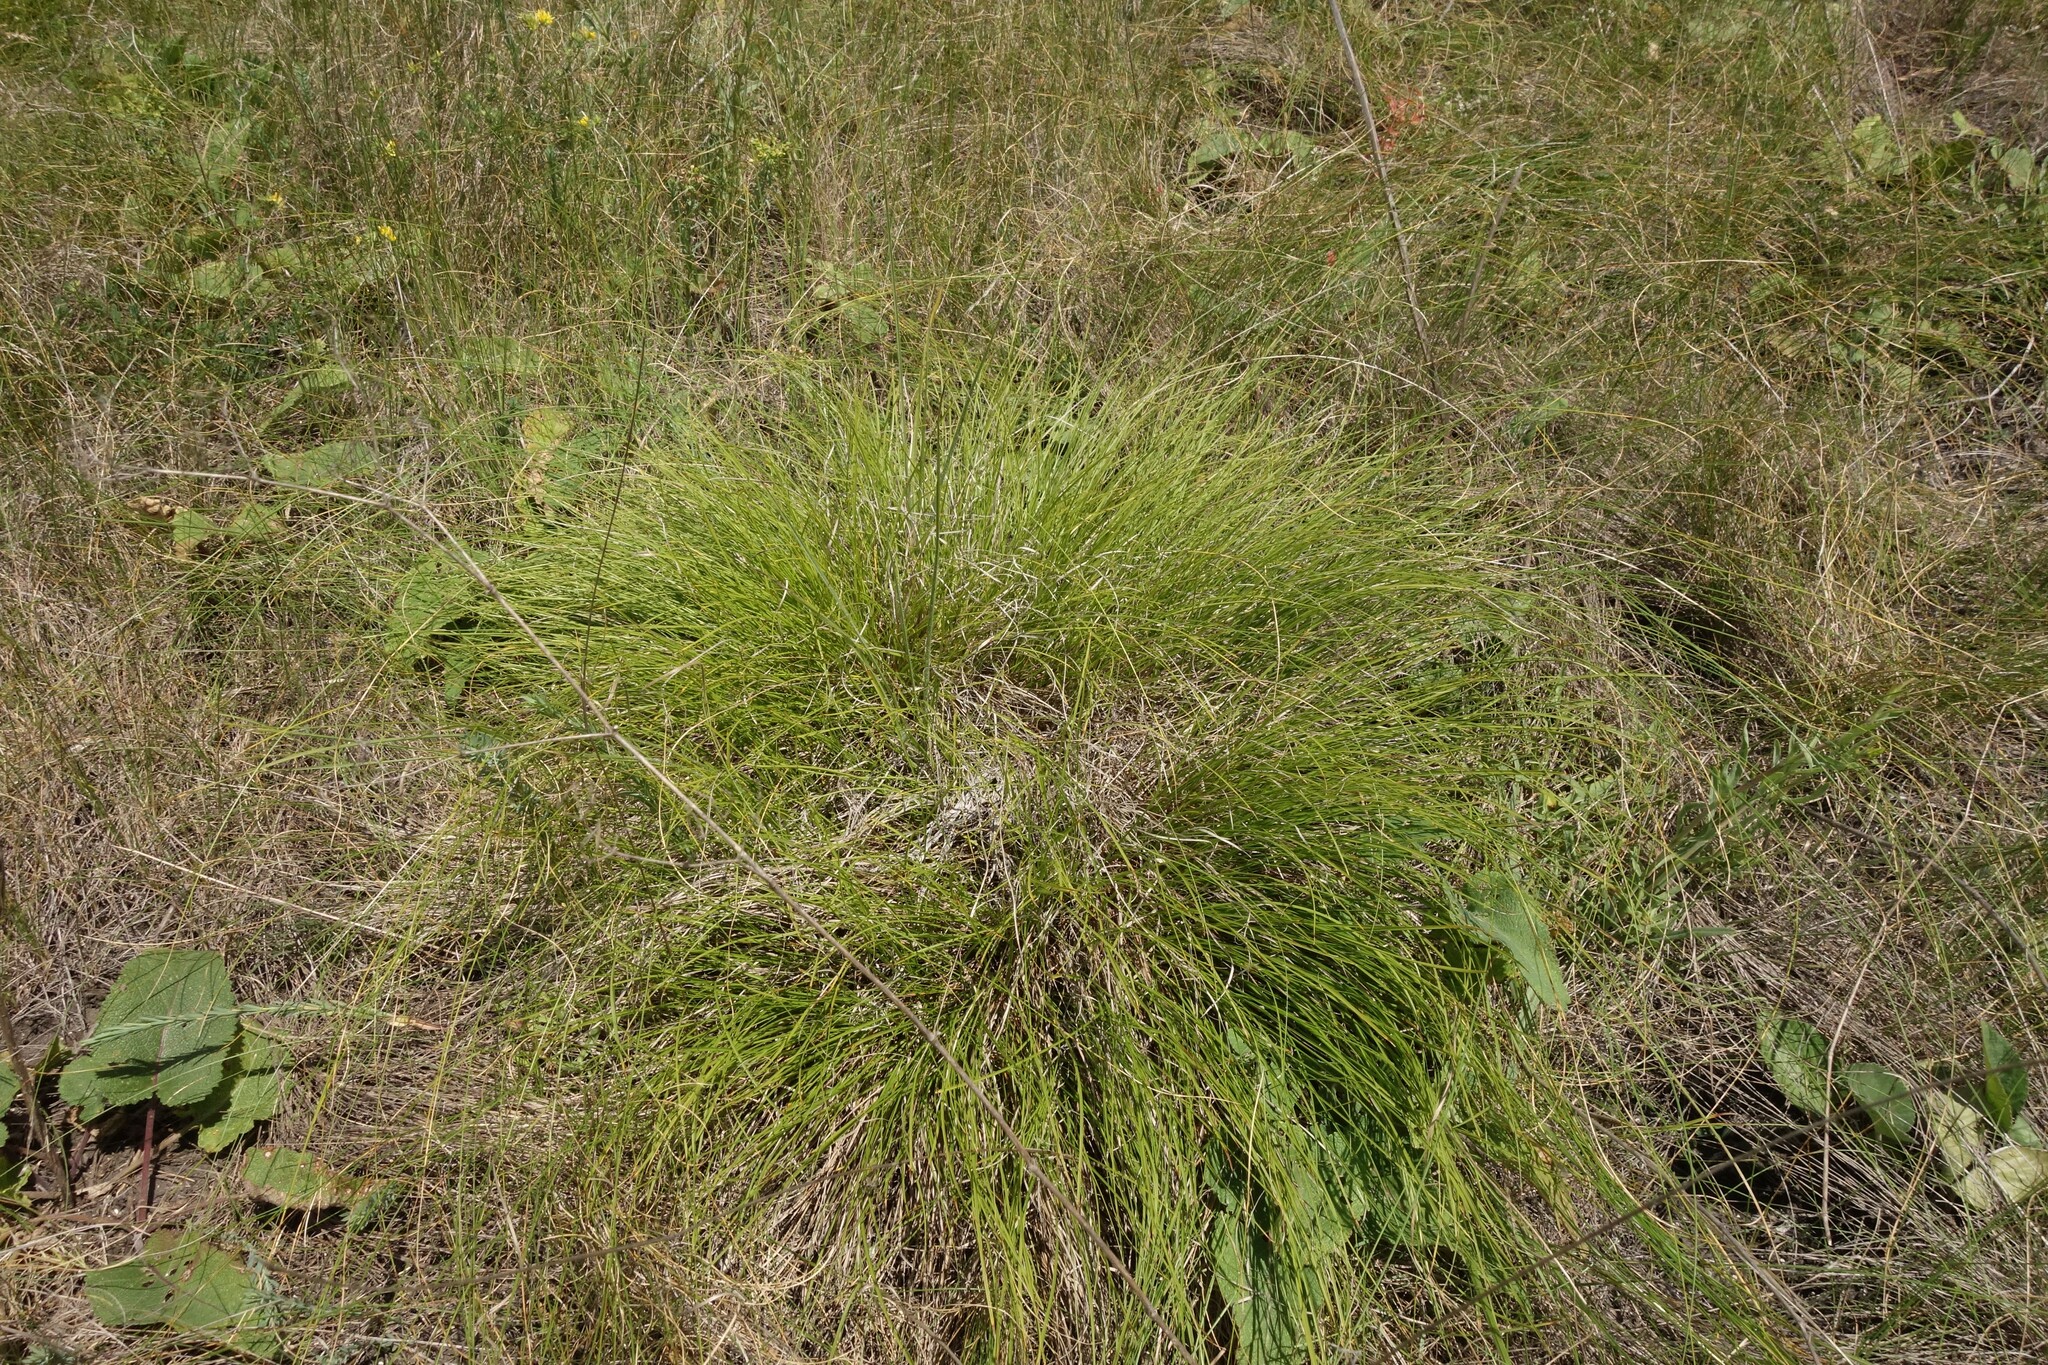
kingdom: Plantae
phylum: Tracheophyta
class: Liliopsida
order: Poales
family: Cyperaceae
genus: Carex
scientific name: Carex humilis
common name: Dwarf sedge
